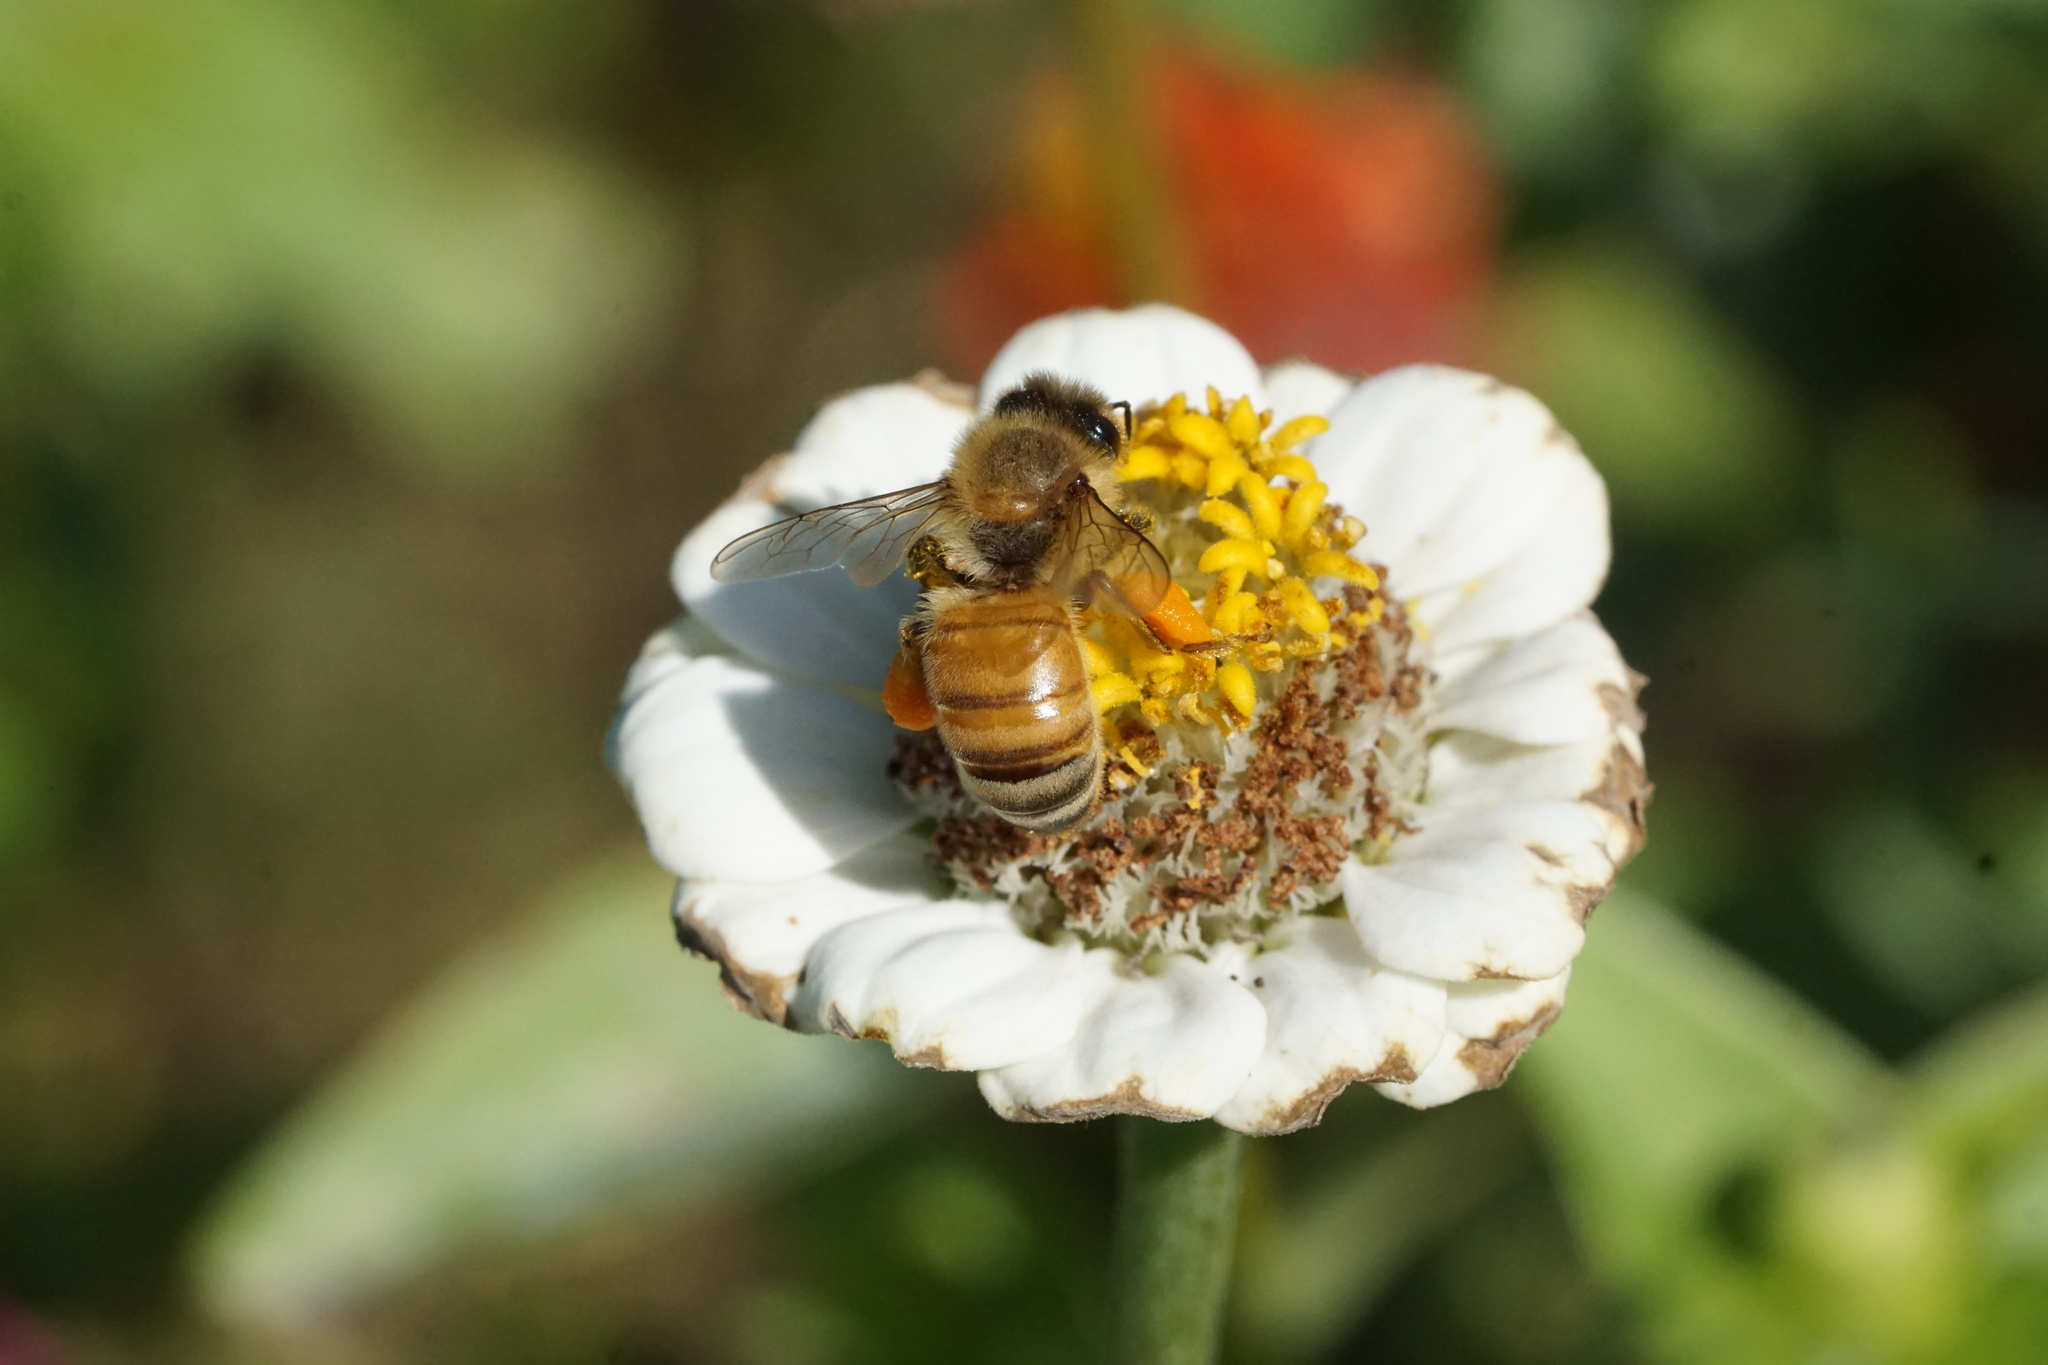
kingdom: Animalia
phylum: Arthropoda
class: Insecta
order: Hymenoptera
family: Apidae
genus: Apis
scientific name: Apis mellifera
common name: Honey bee
